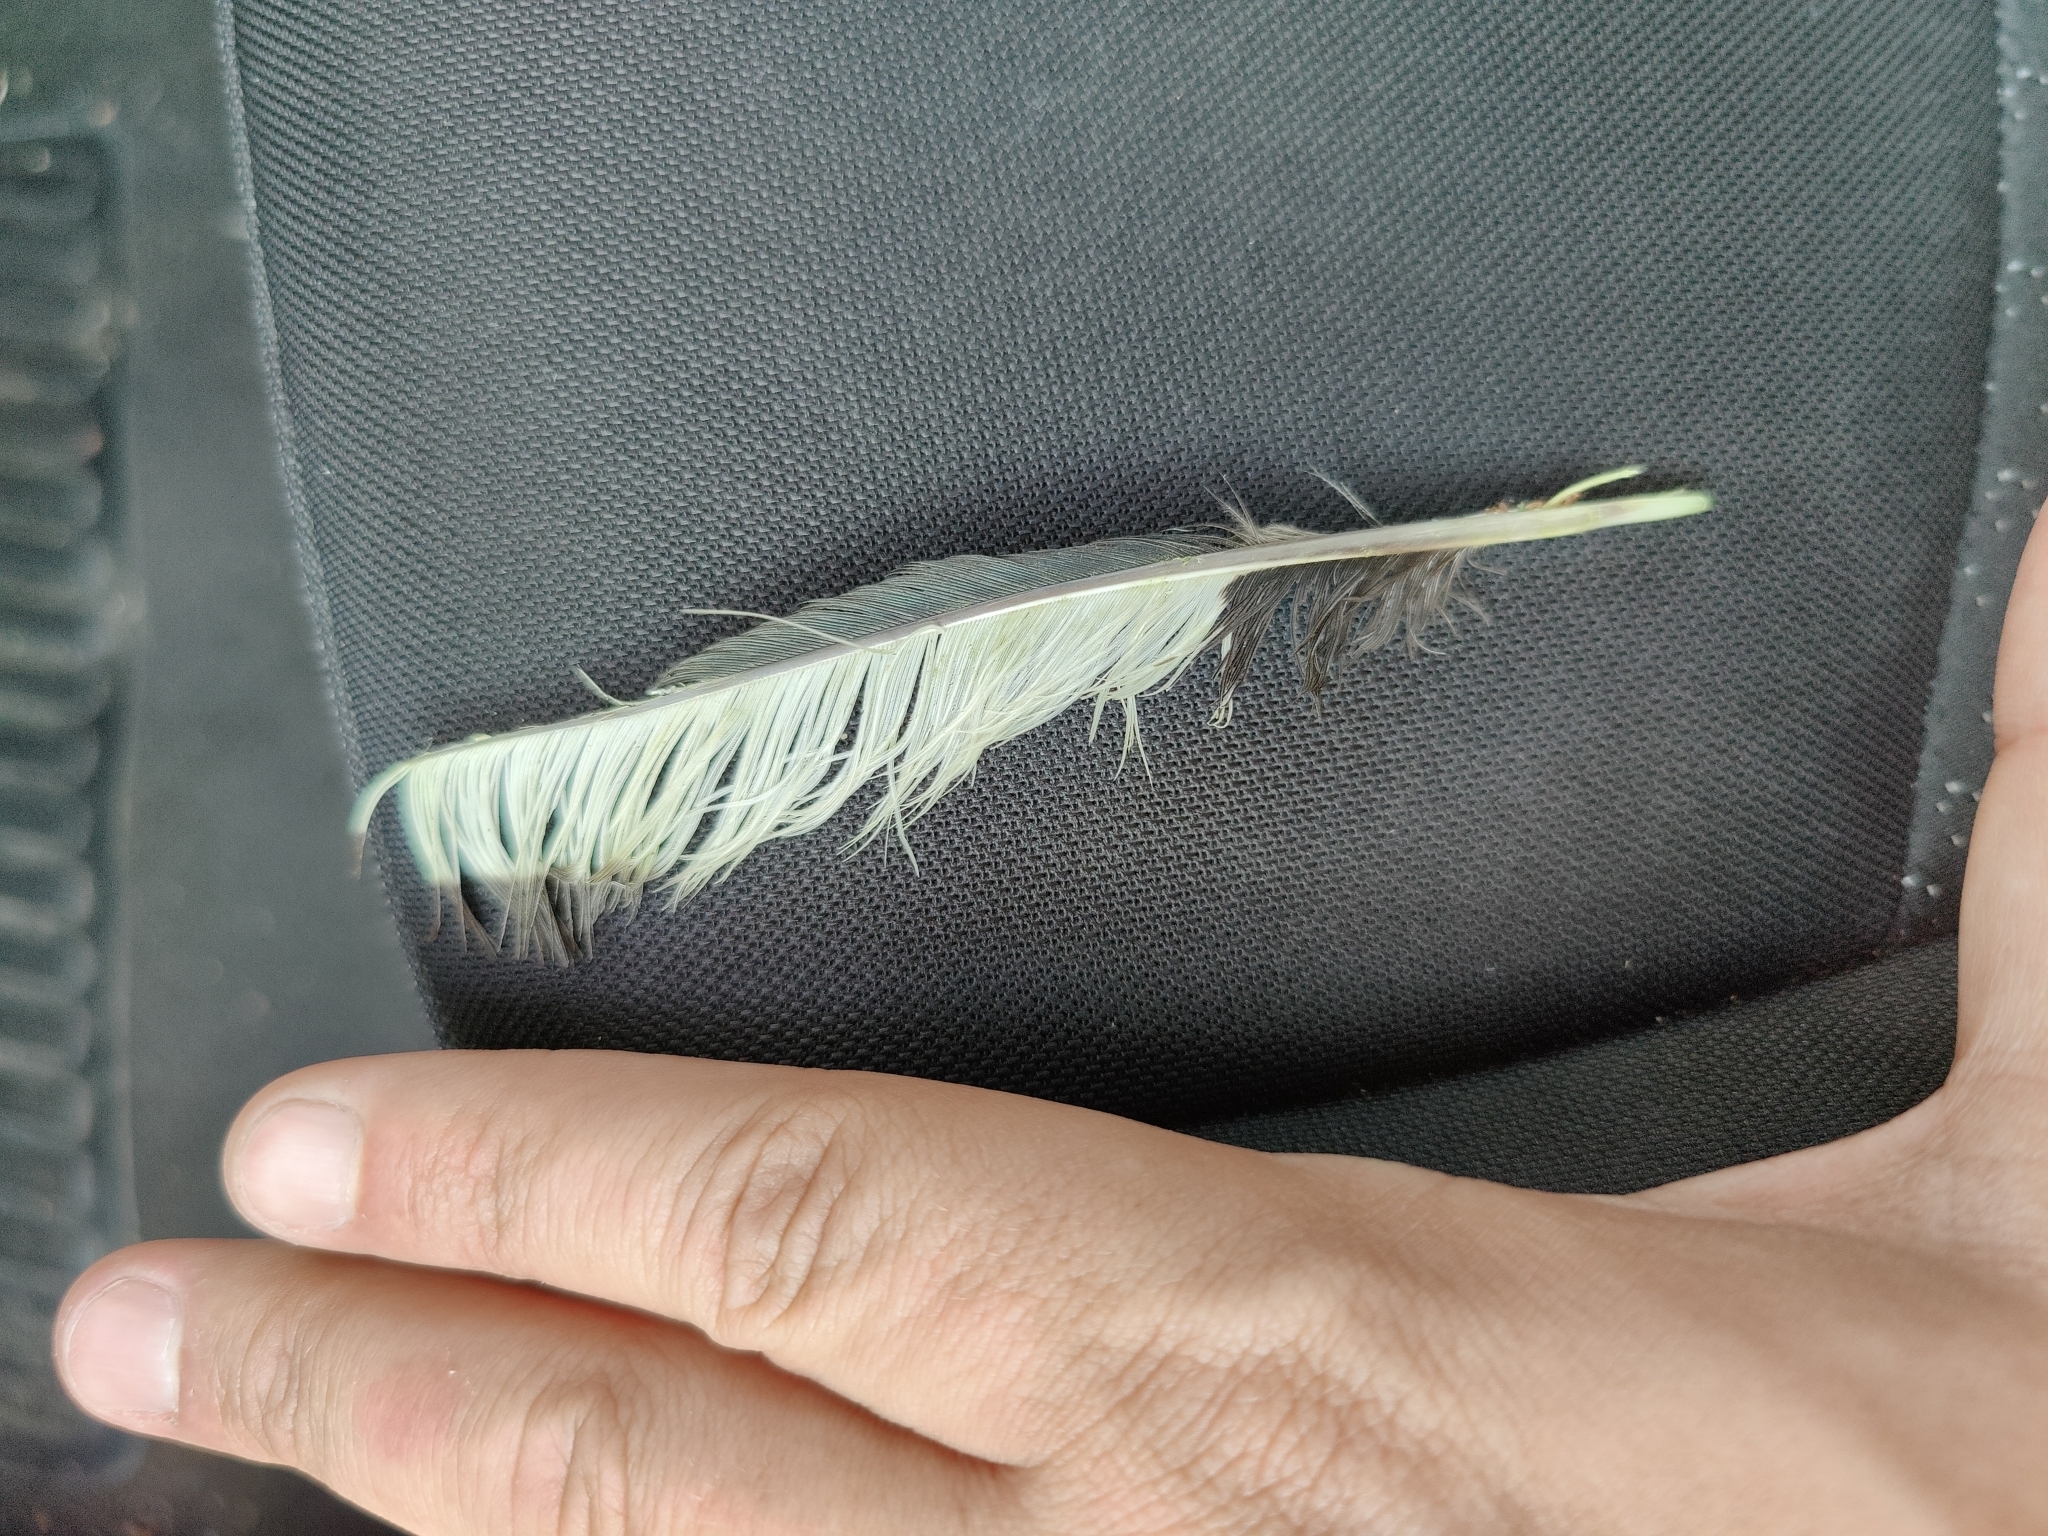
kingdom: Animalia
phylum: Chordata
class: Aves
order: Passeriformes
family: Corvidae
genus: Pica
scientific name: Pica pica
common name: Eurasian magpie
